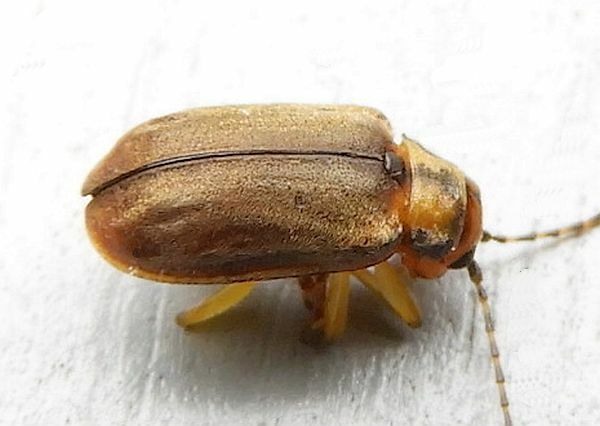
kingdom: Animalia
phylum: Arthropoda
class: Insecta
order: Coleoptera
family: Chrysomelidae
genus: Pyrrhalta
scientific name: Pyrrhalta viburni
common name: Guelder-rose leaf beetle
